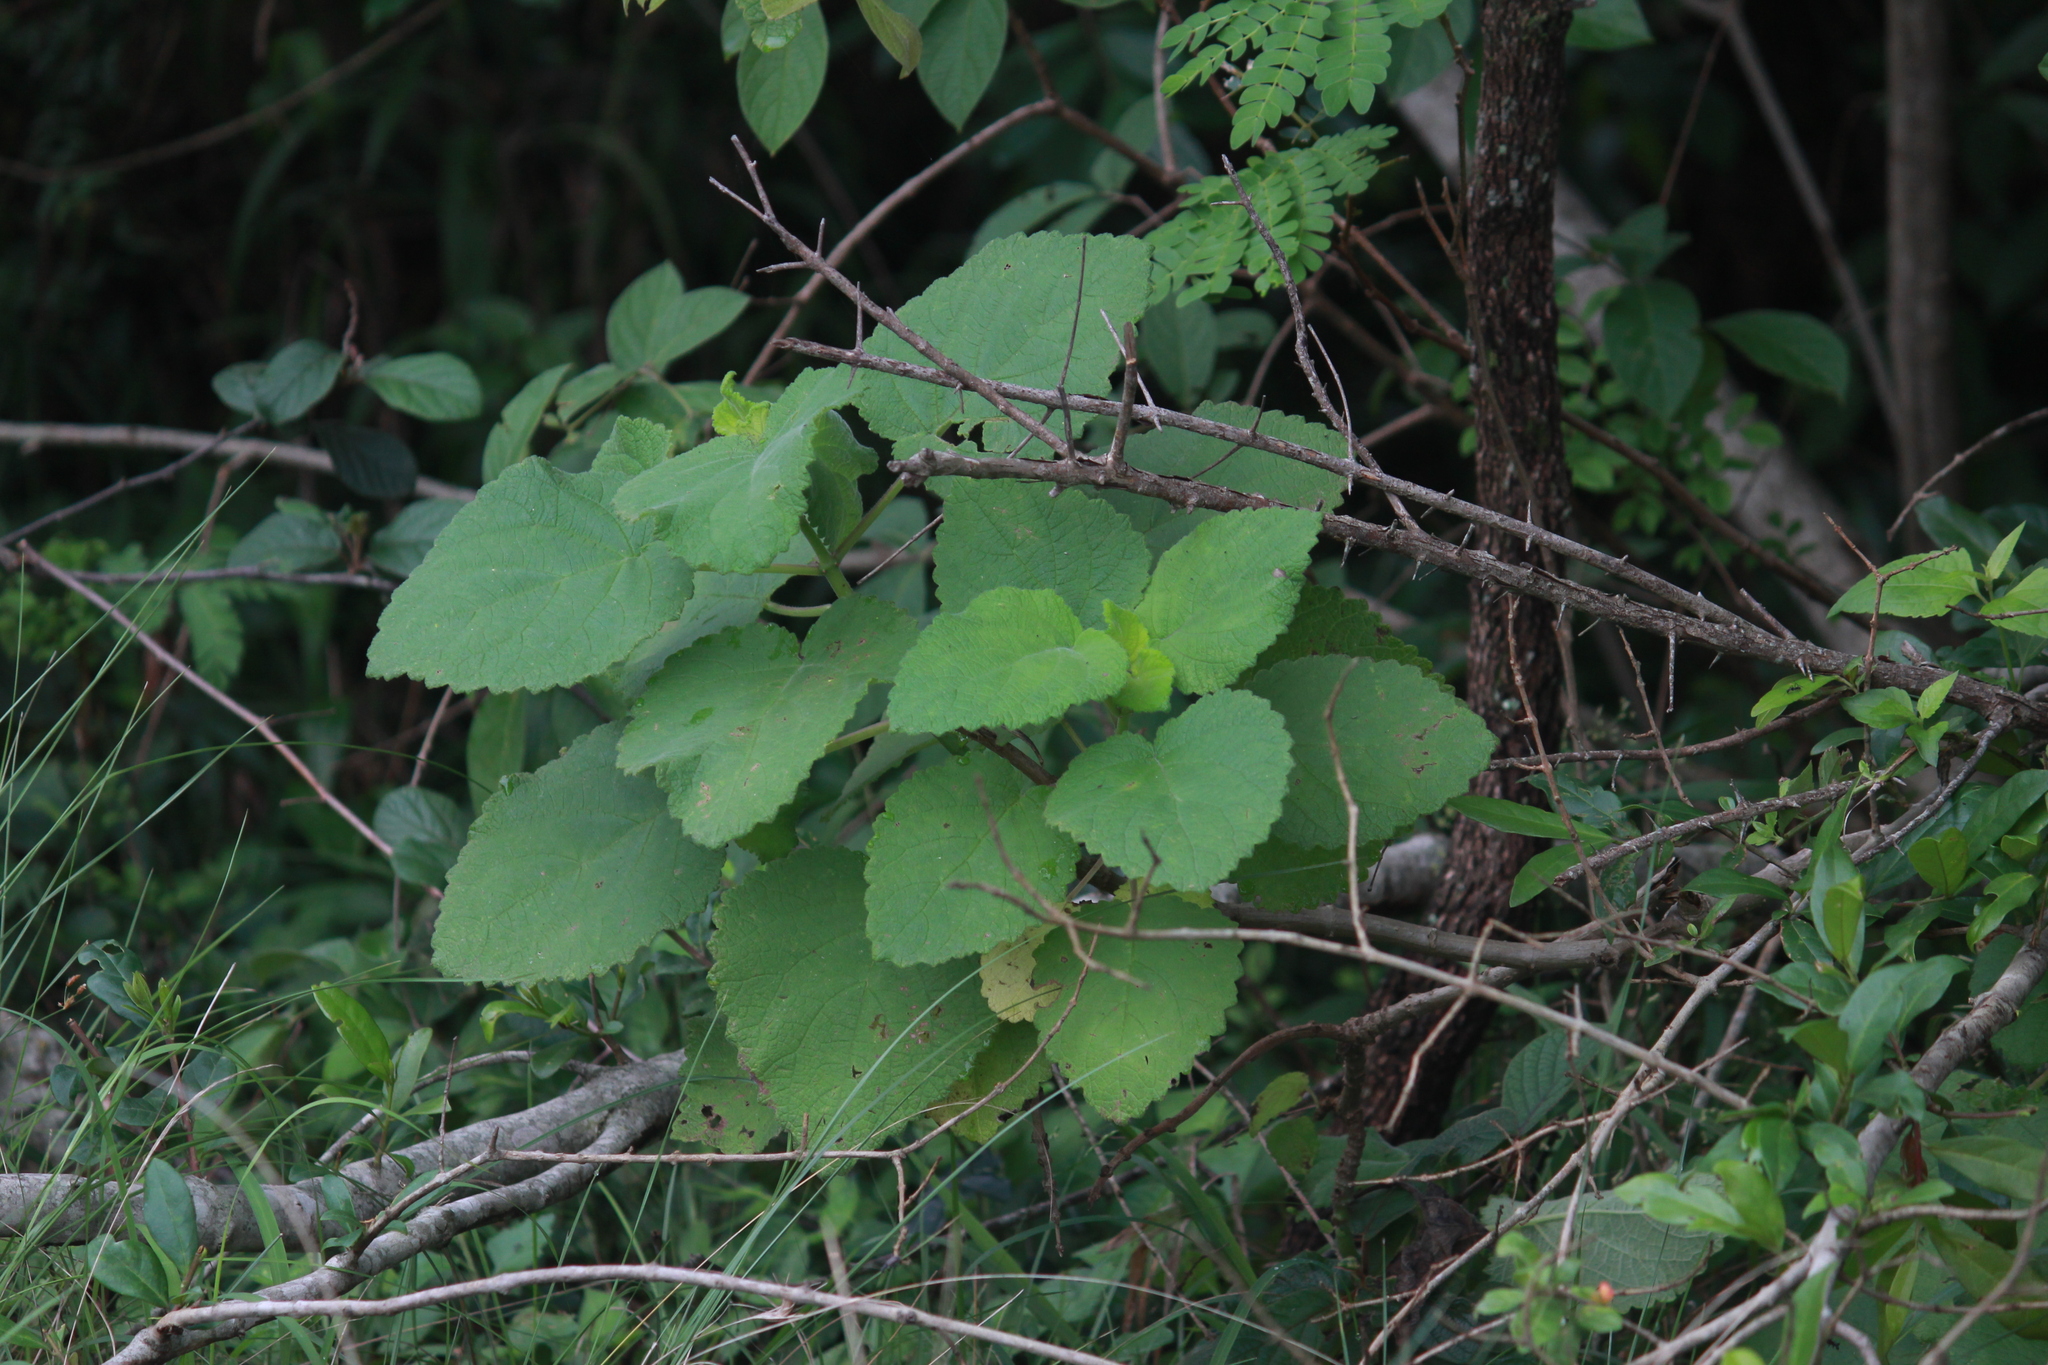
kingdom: Plantae
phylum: Tracheophyta
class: Magnoliopsida
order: Lamiales
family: Lamiaceae
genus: Tetradenia
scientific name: Tetradenia riparia
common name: Gingerbush
